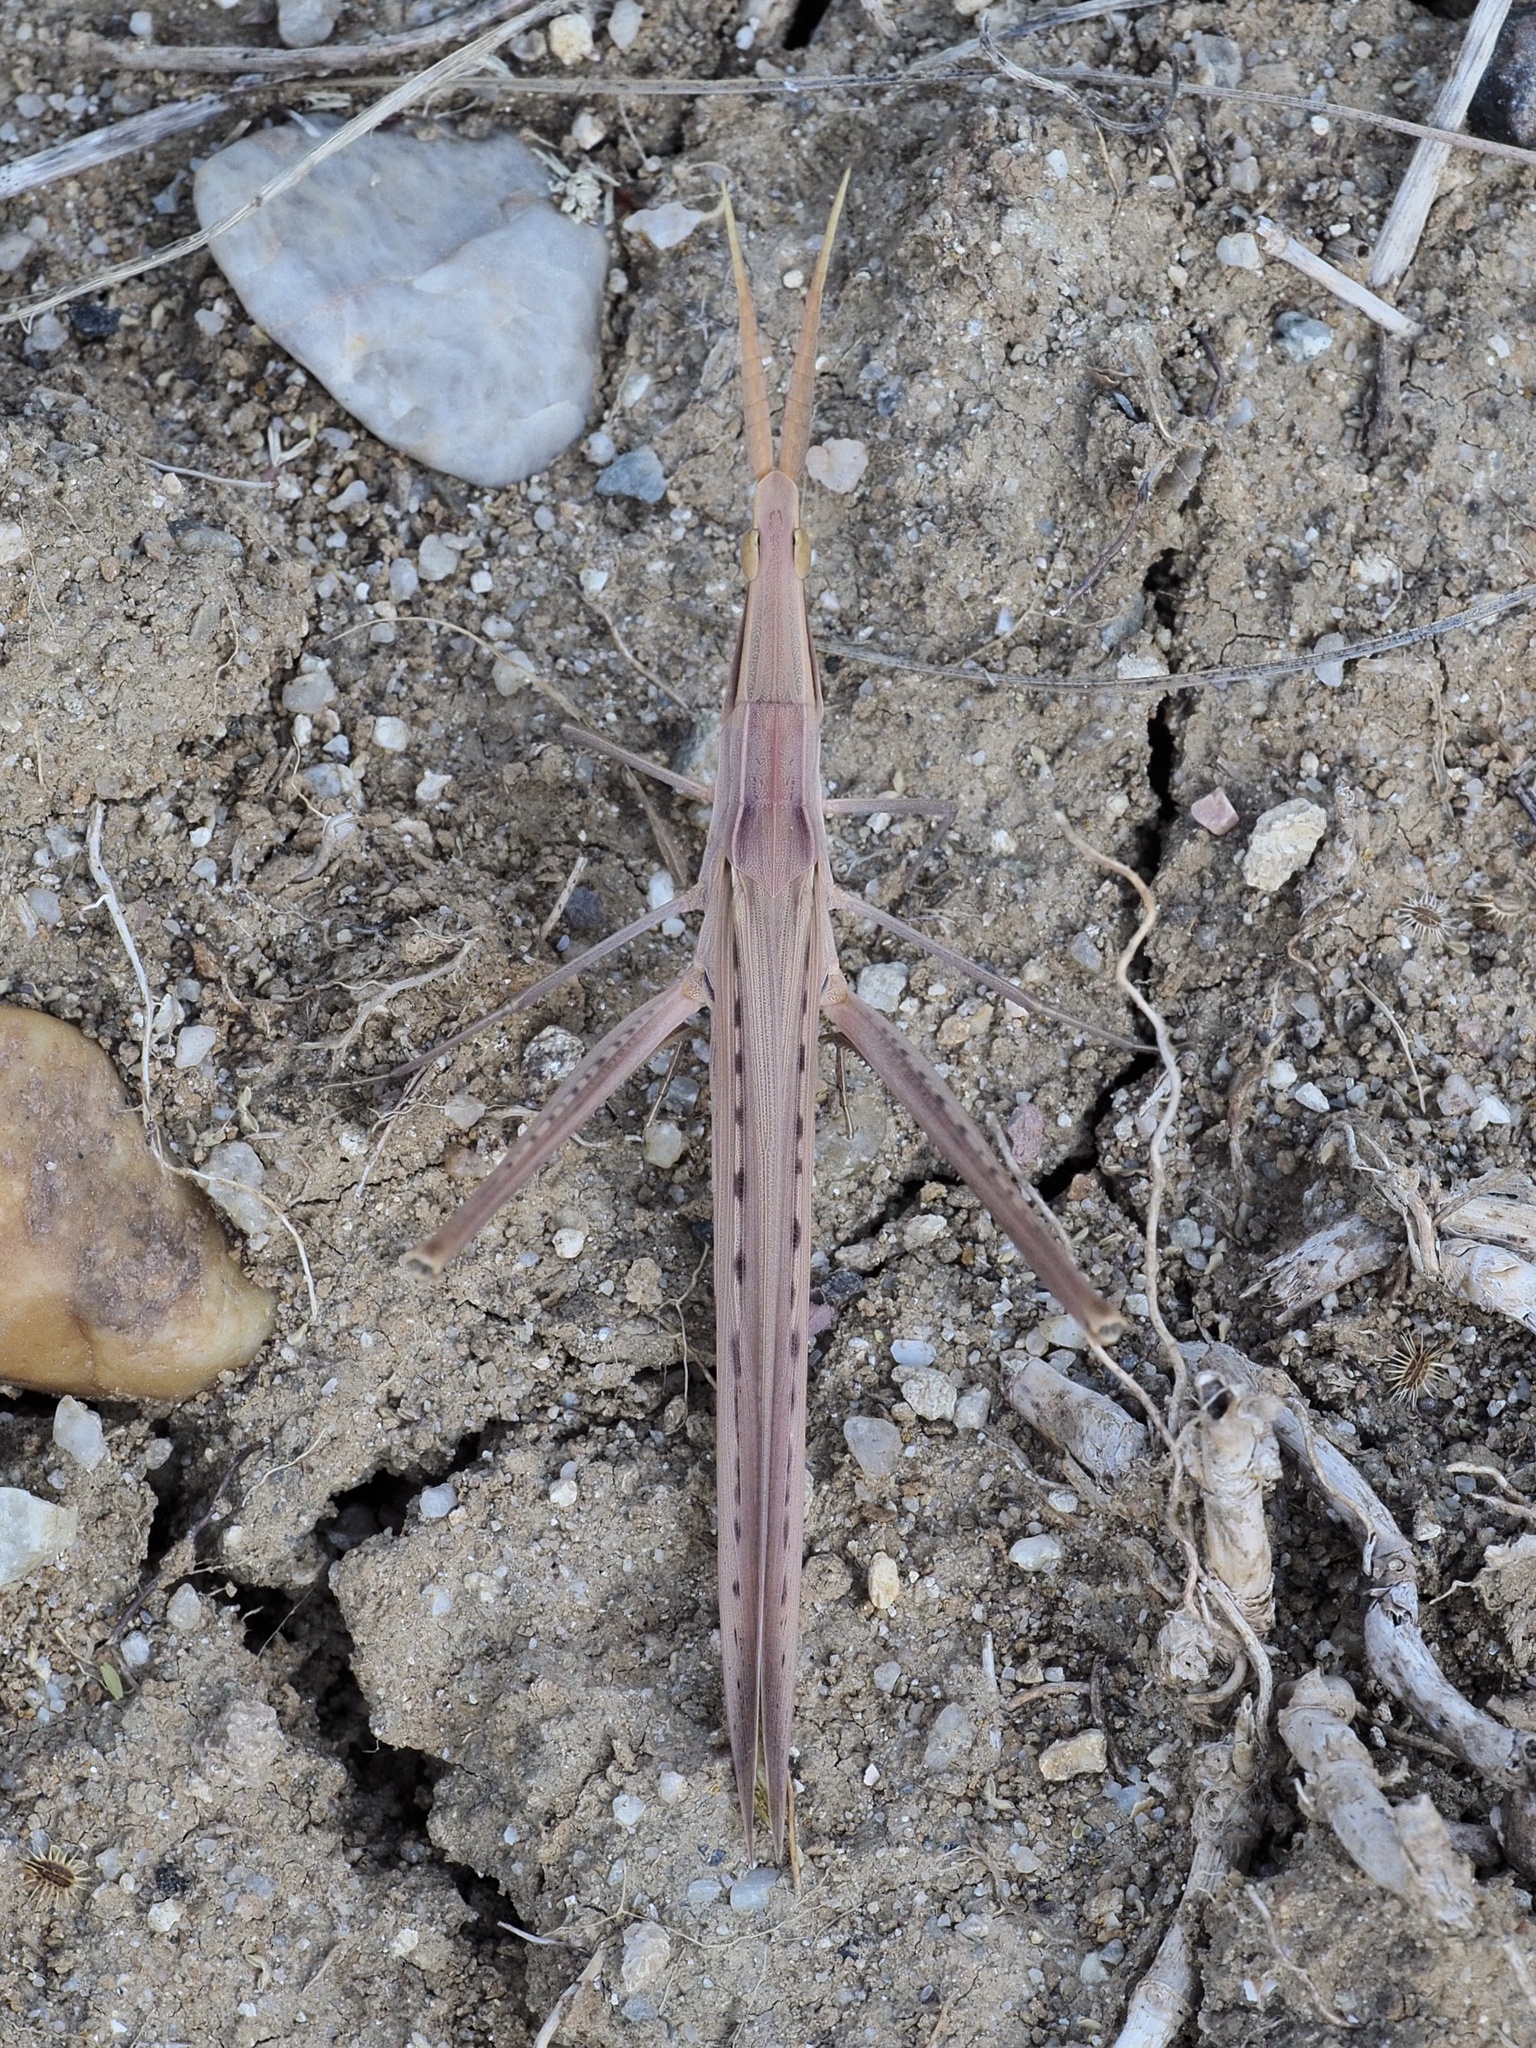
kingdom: Animalia
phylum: Arthropoda
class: Insecta
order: Orthoptera
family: Acrididae
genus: Acrida
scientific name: Acrida ungarica
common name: Common cone-headed grasshopper
